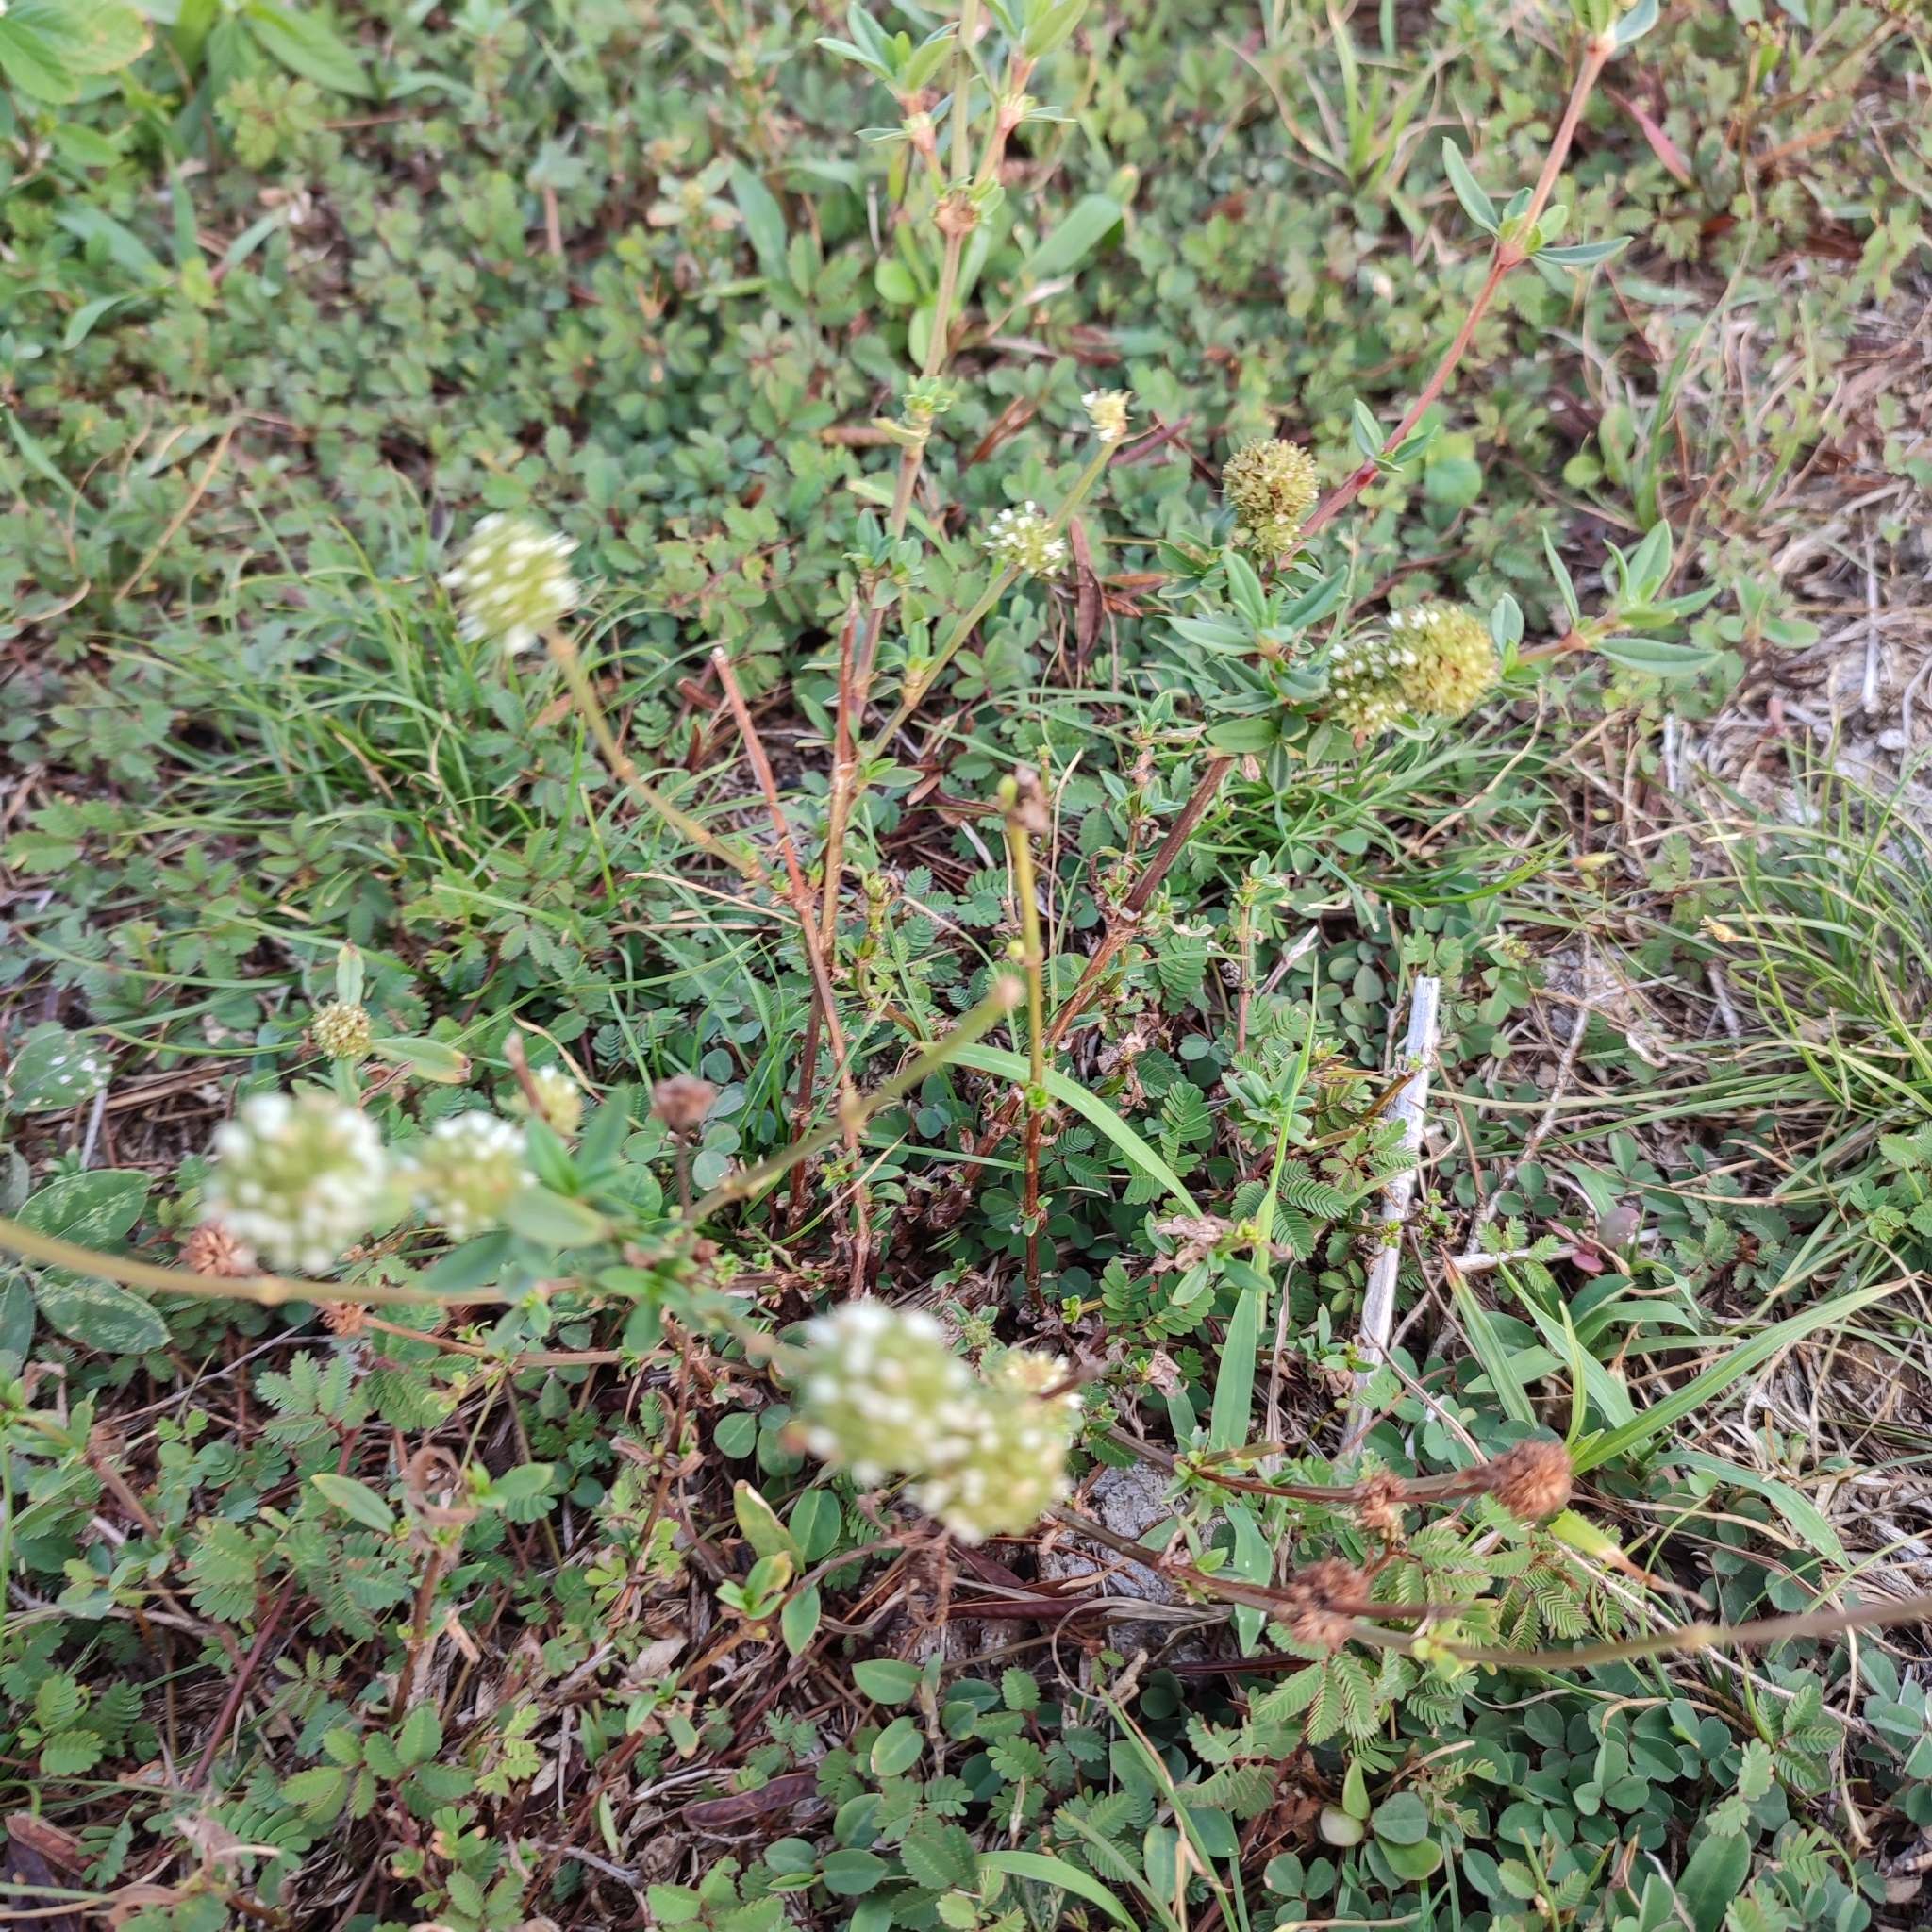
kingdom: Plantae
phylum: Tracheophyta
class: Magnoliopsida
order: Gentianales
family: Rubiaceae
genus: Spermacoce
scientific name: Spermacoce verticillata
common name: Shrubby false buttonweed
